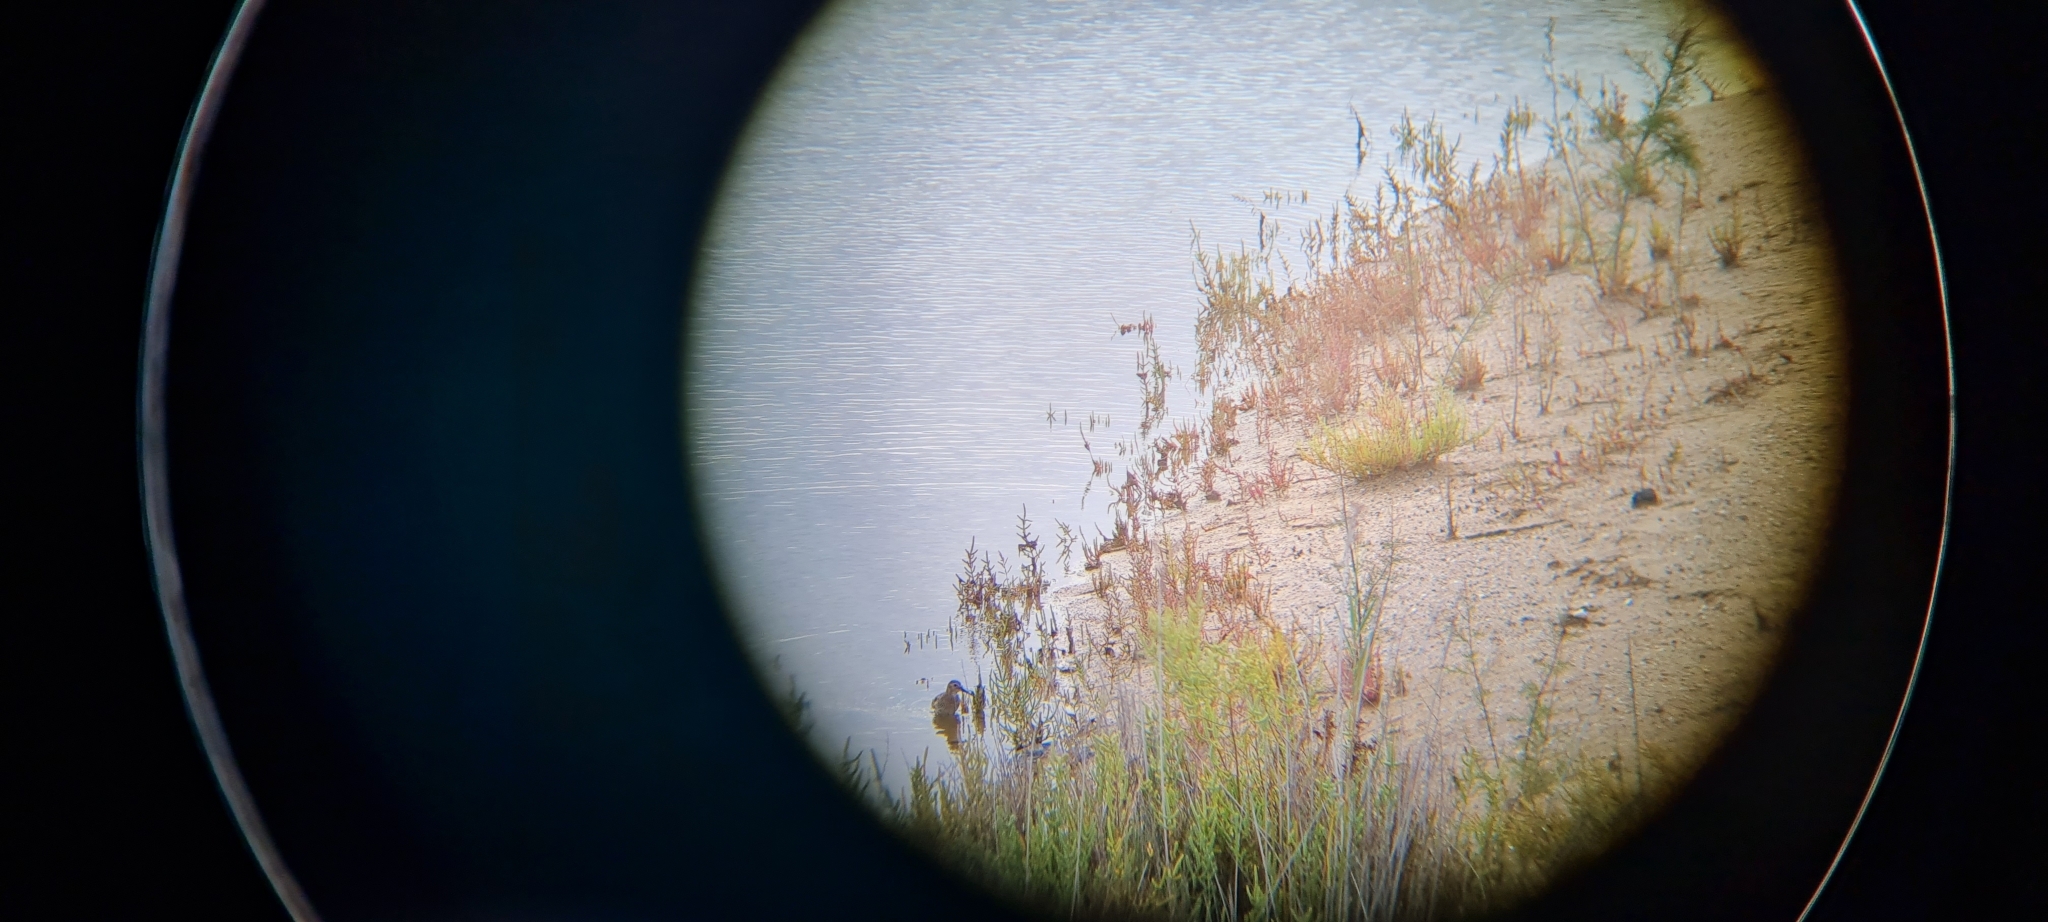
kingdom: Animalia
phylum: Chordata
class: Aves
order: Charadriiformes
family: Scolopacidae
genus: Tringa
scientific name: Tringa ochropus
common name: Green sandpiper
